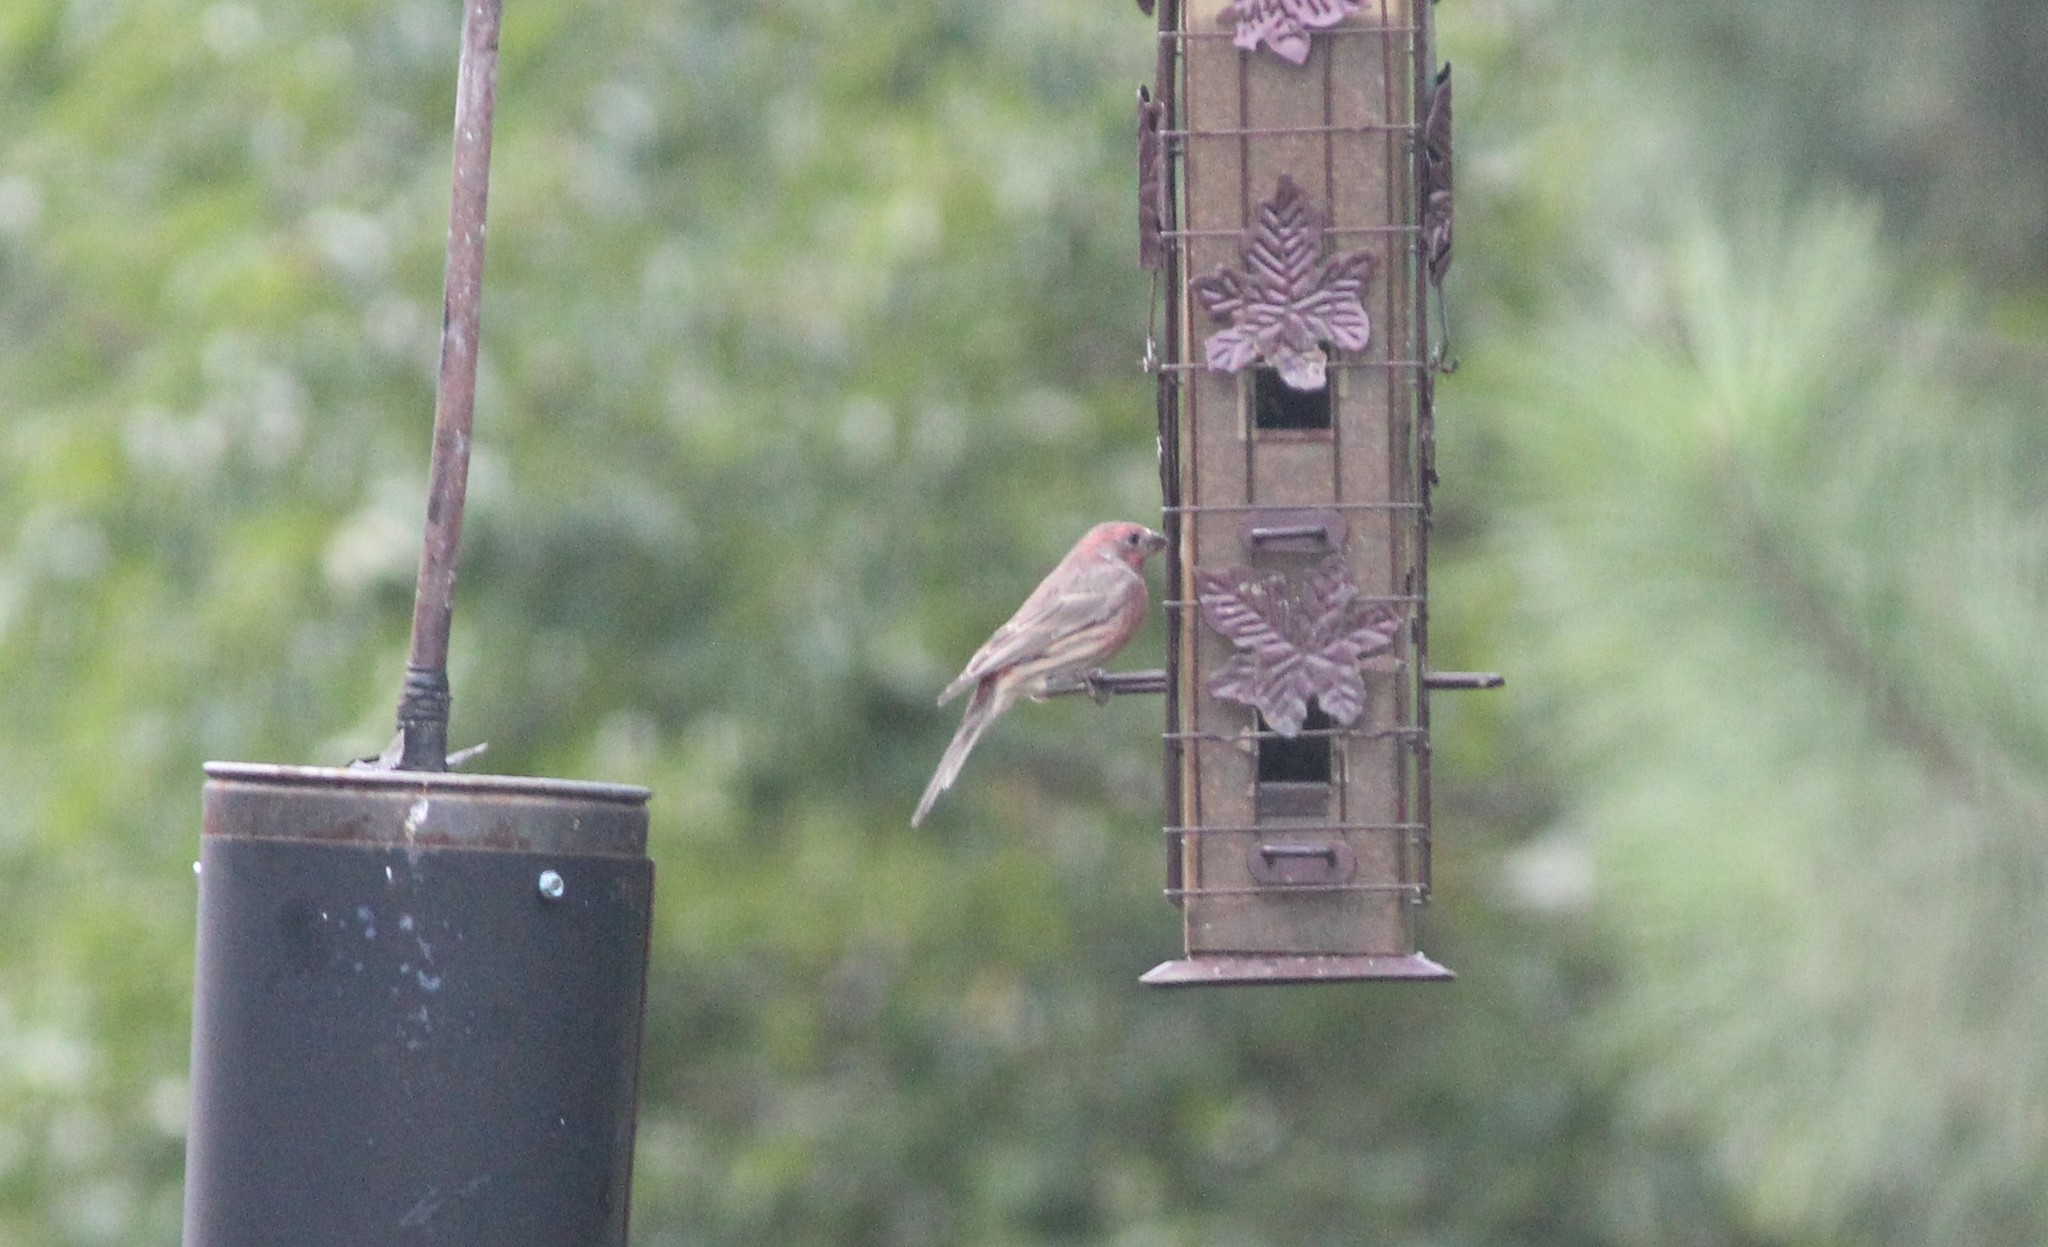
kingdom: Animalia
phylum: Chordata
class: Aves
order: Passeriformes
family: Fringillidae
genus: Haemorhous
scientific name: Haemorhous mexicanus
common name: House finch
